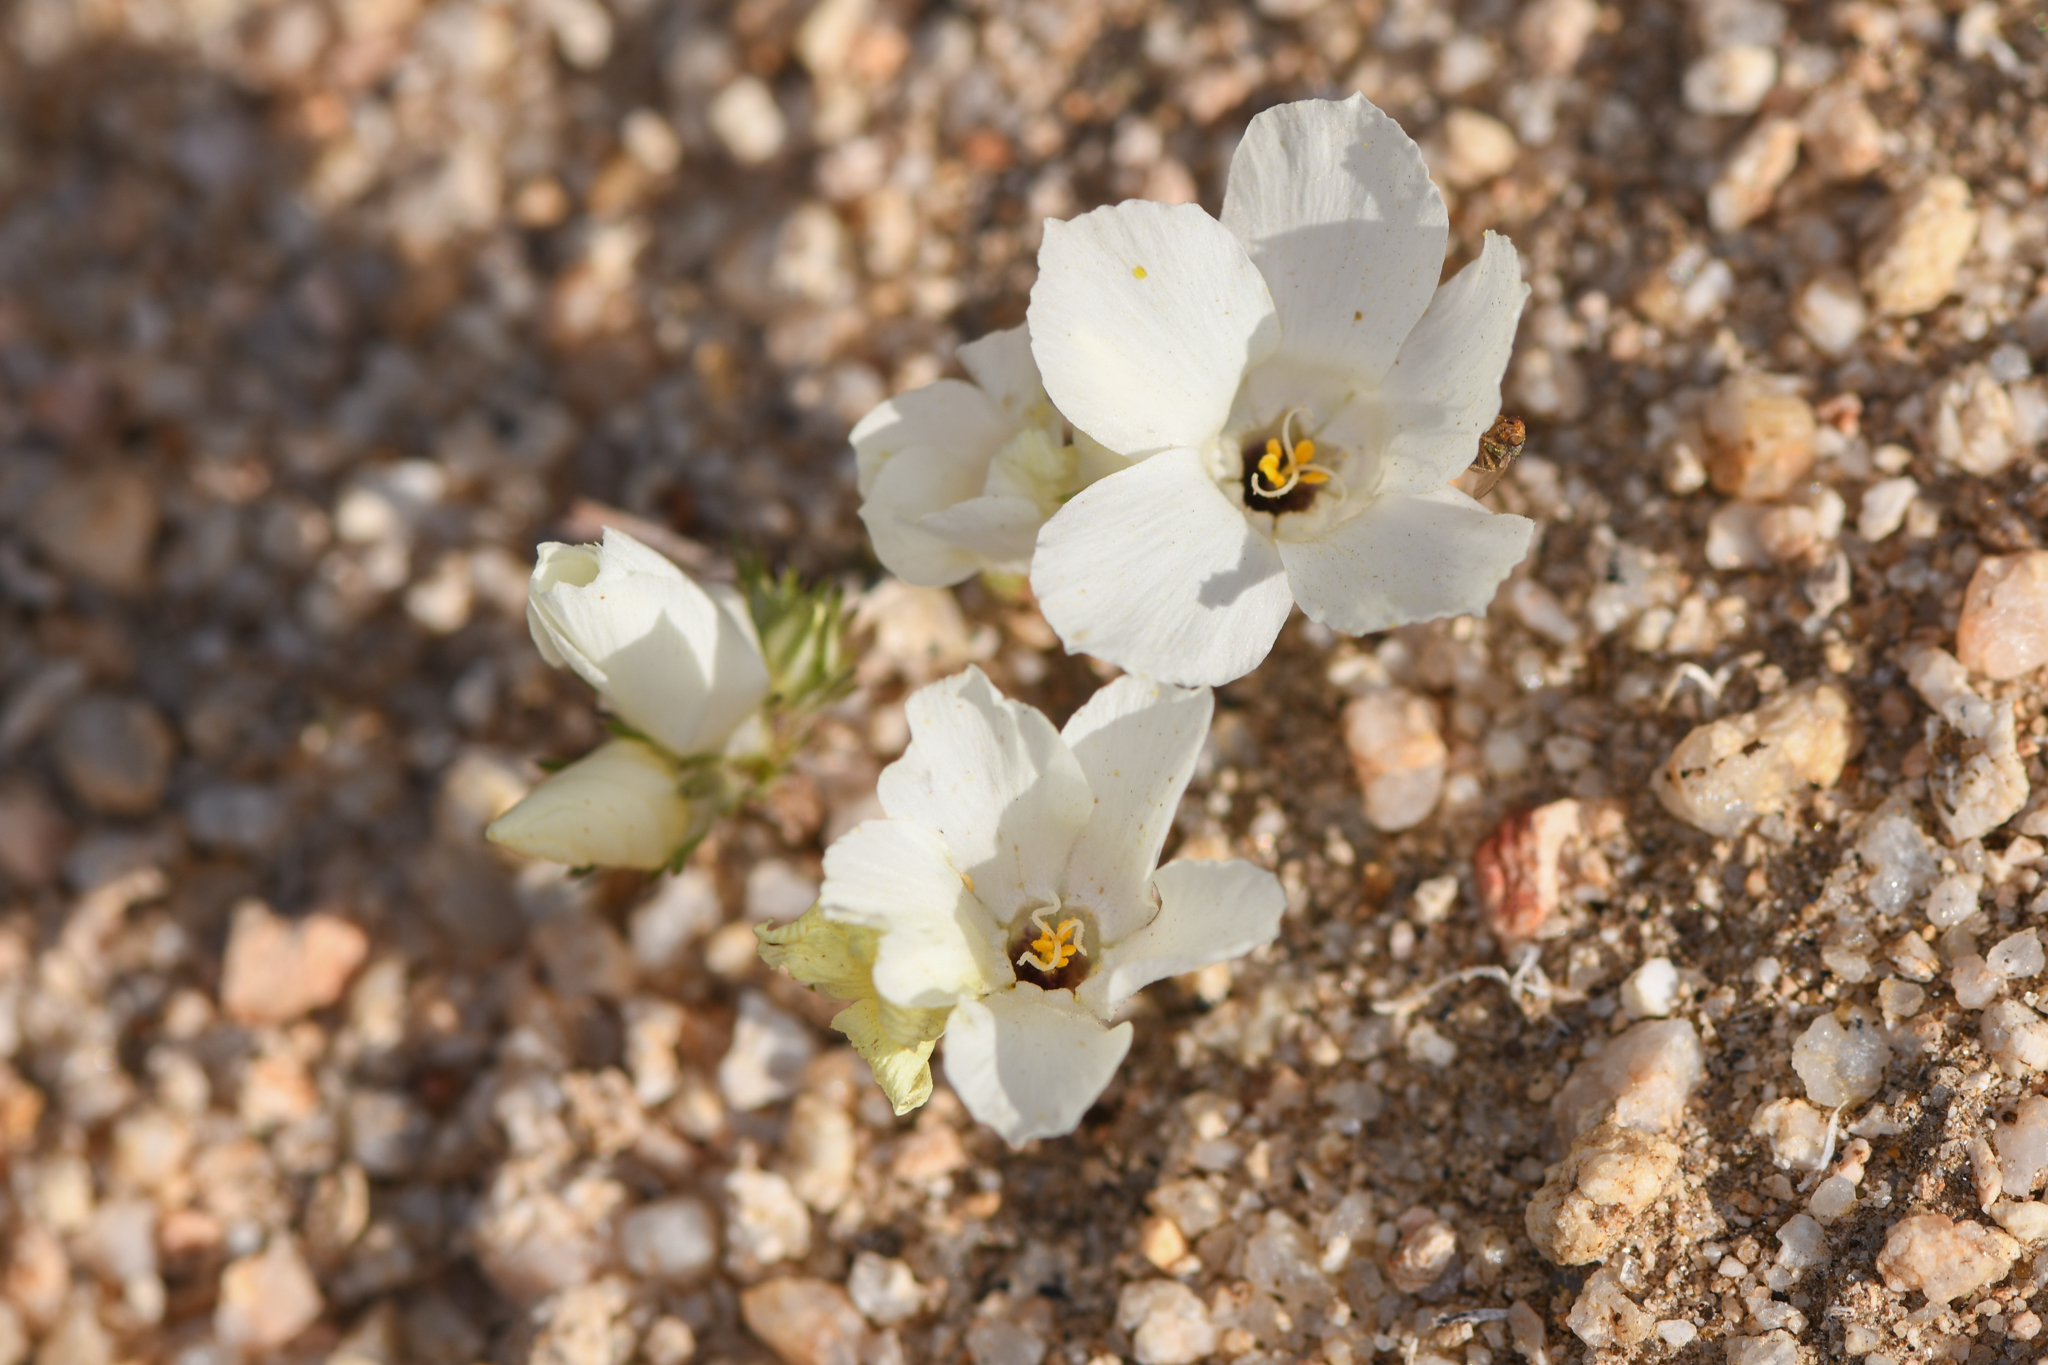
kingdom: Plantae
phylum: Tracheophyta
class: Magnoliopsida
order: Ericales
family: Polemoniaceae
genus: Linanthus
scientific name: Linanthus parryae
